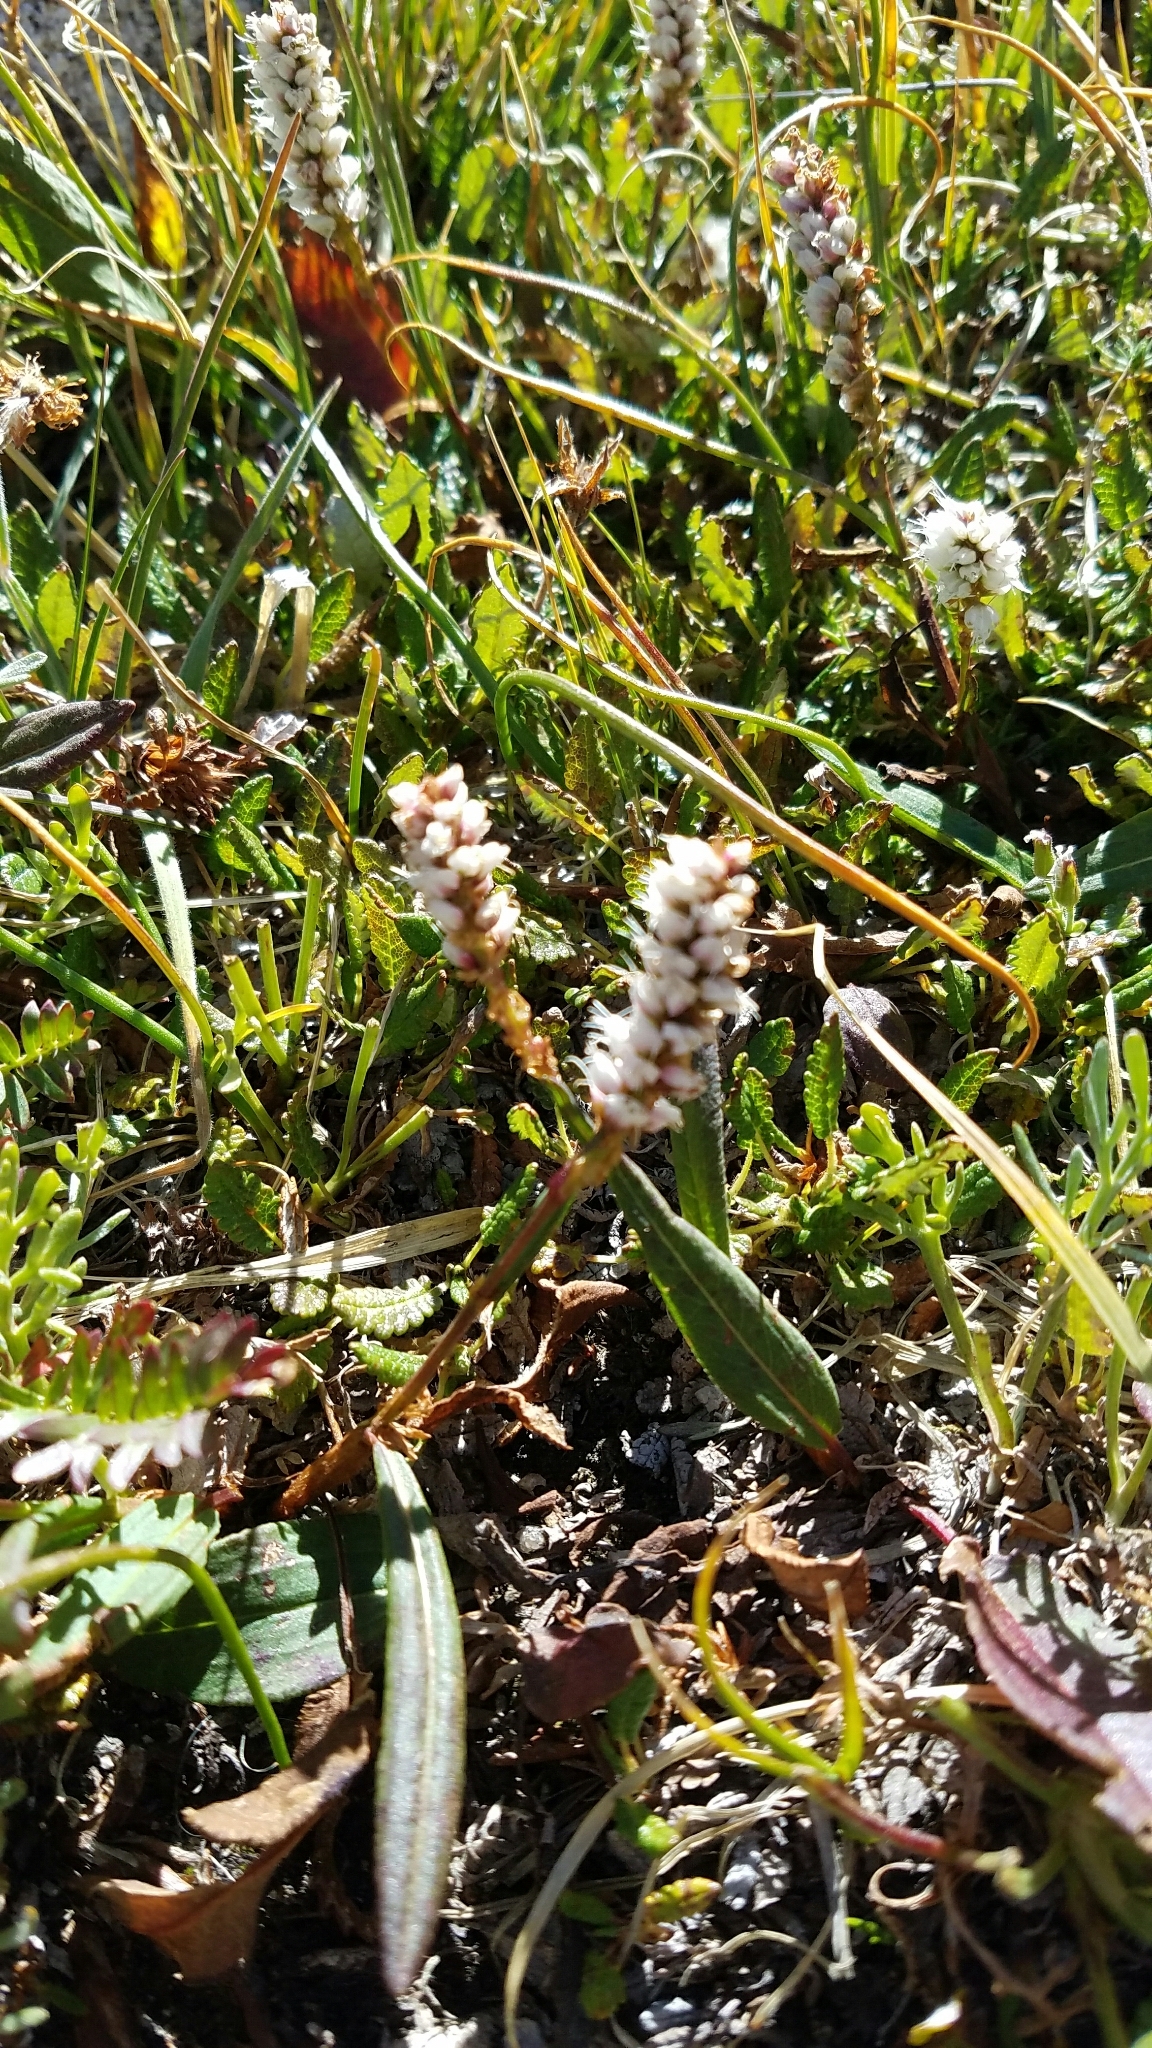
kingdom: Plantae
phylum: Tracheophyta
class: Magnoliopsida
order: Caryophyllales
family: Polygonaceae
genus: Bistorta
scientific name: Bistorta vivipara
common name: Alpine bistort
